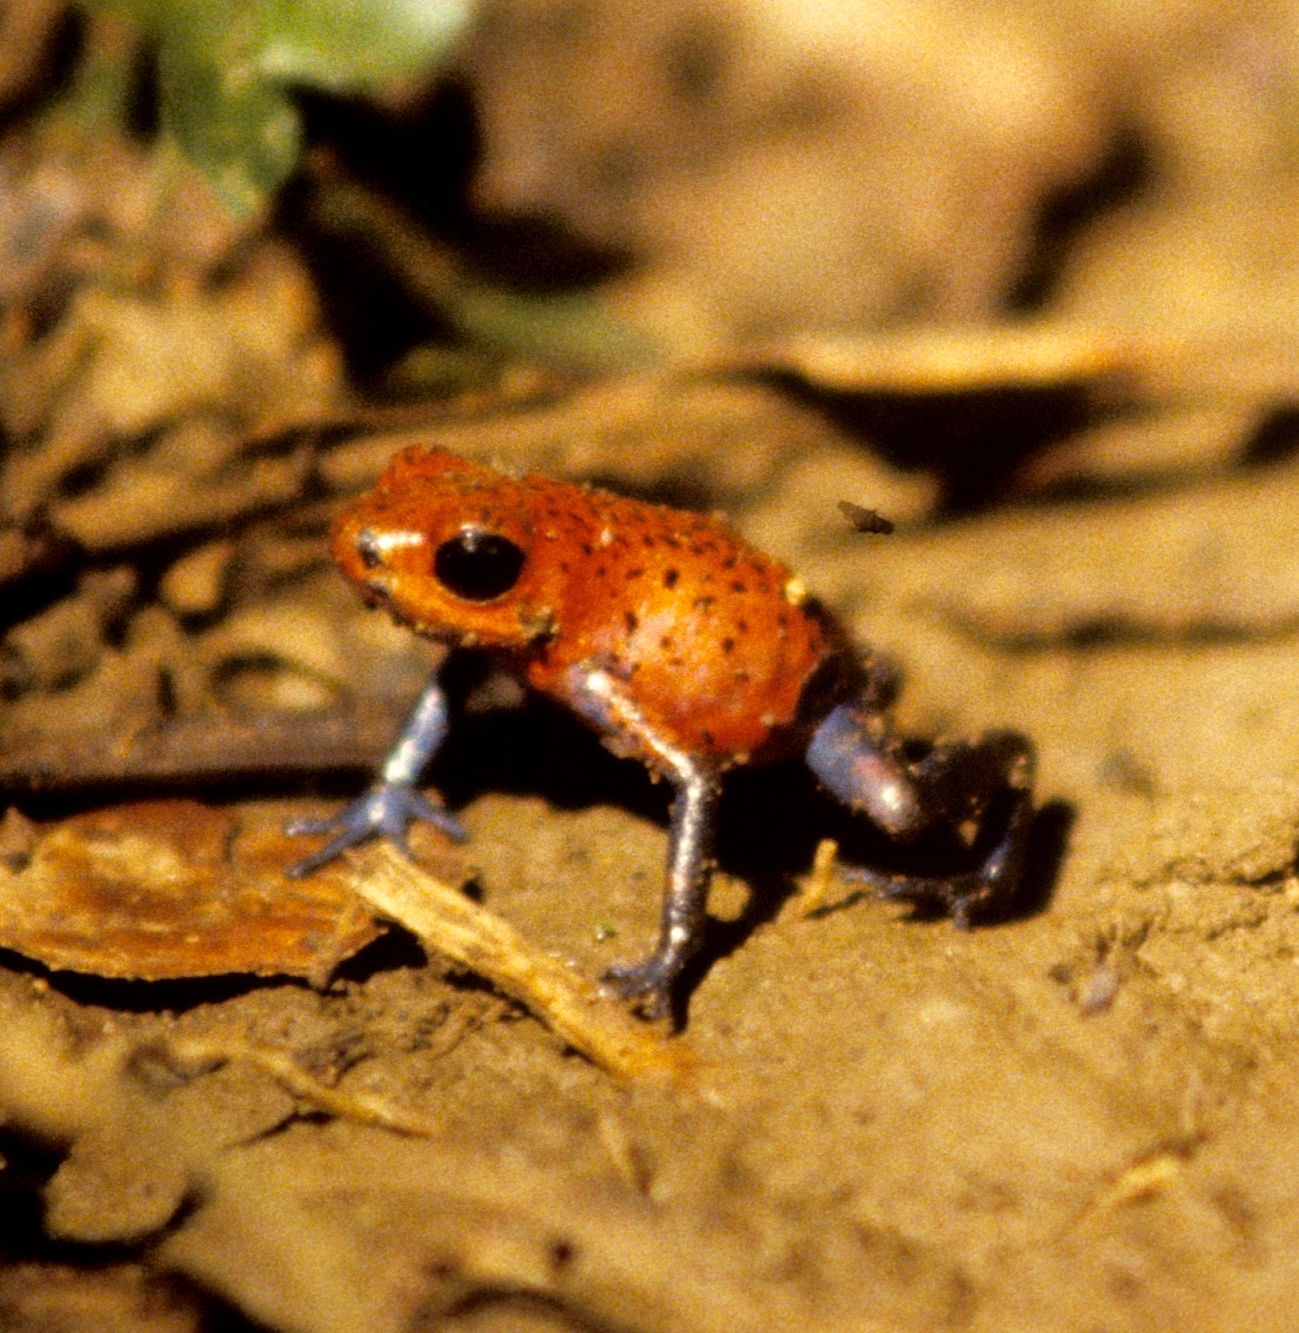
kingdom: Animalia
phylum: Chordata
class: Amphibia
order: Anura
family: Dendrobatidae
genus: Oophaga
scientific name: Oophaga pumilio
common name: Flaming poison frog
